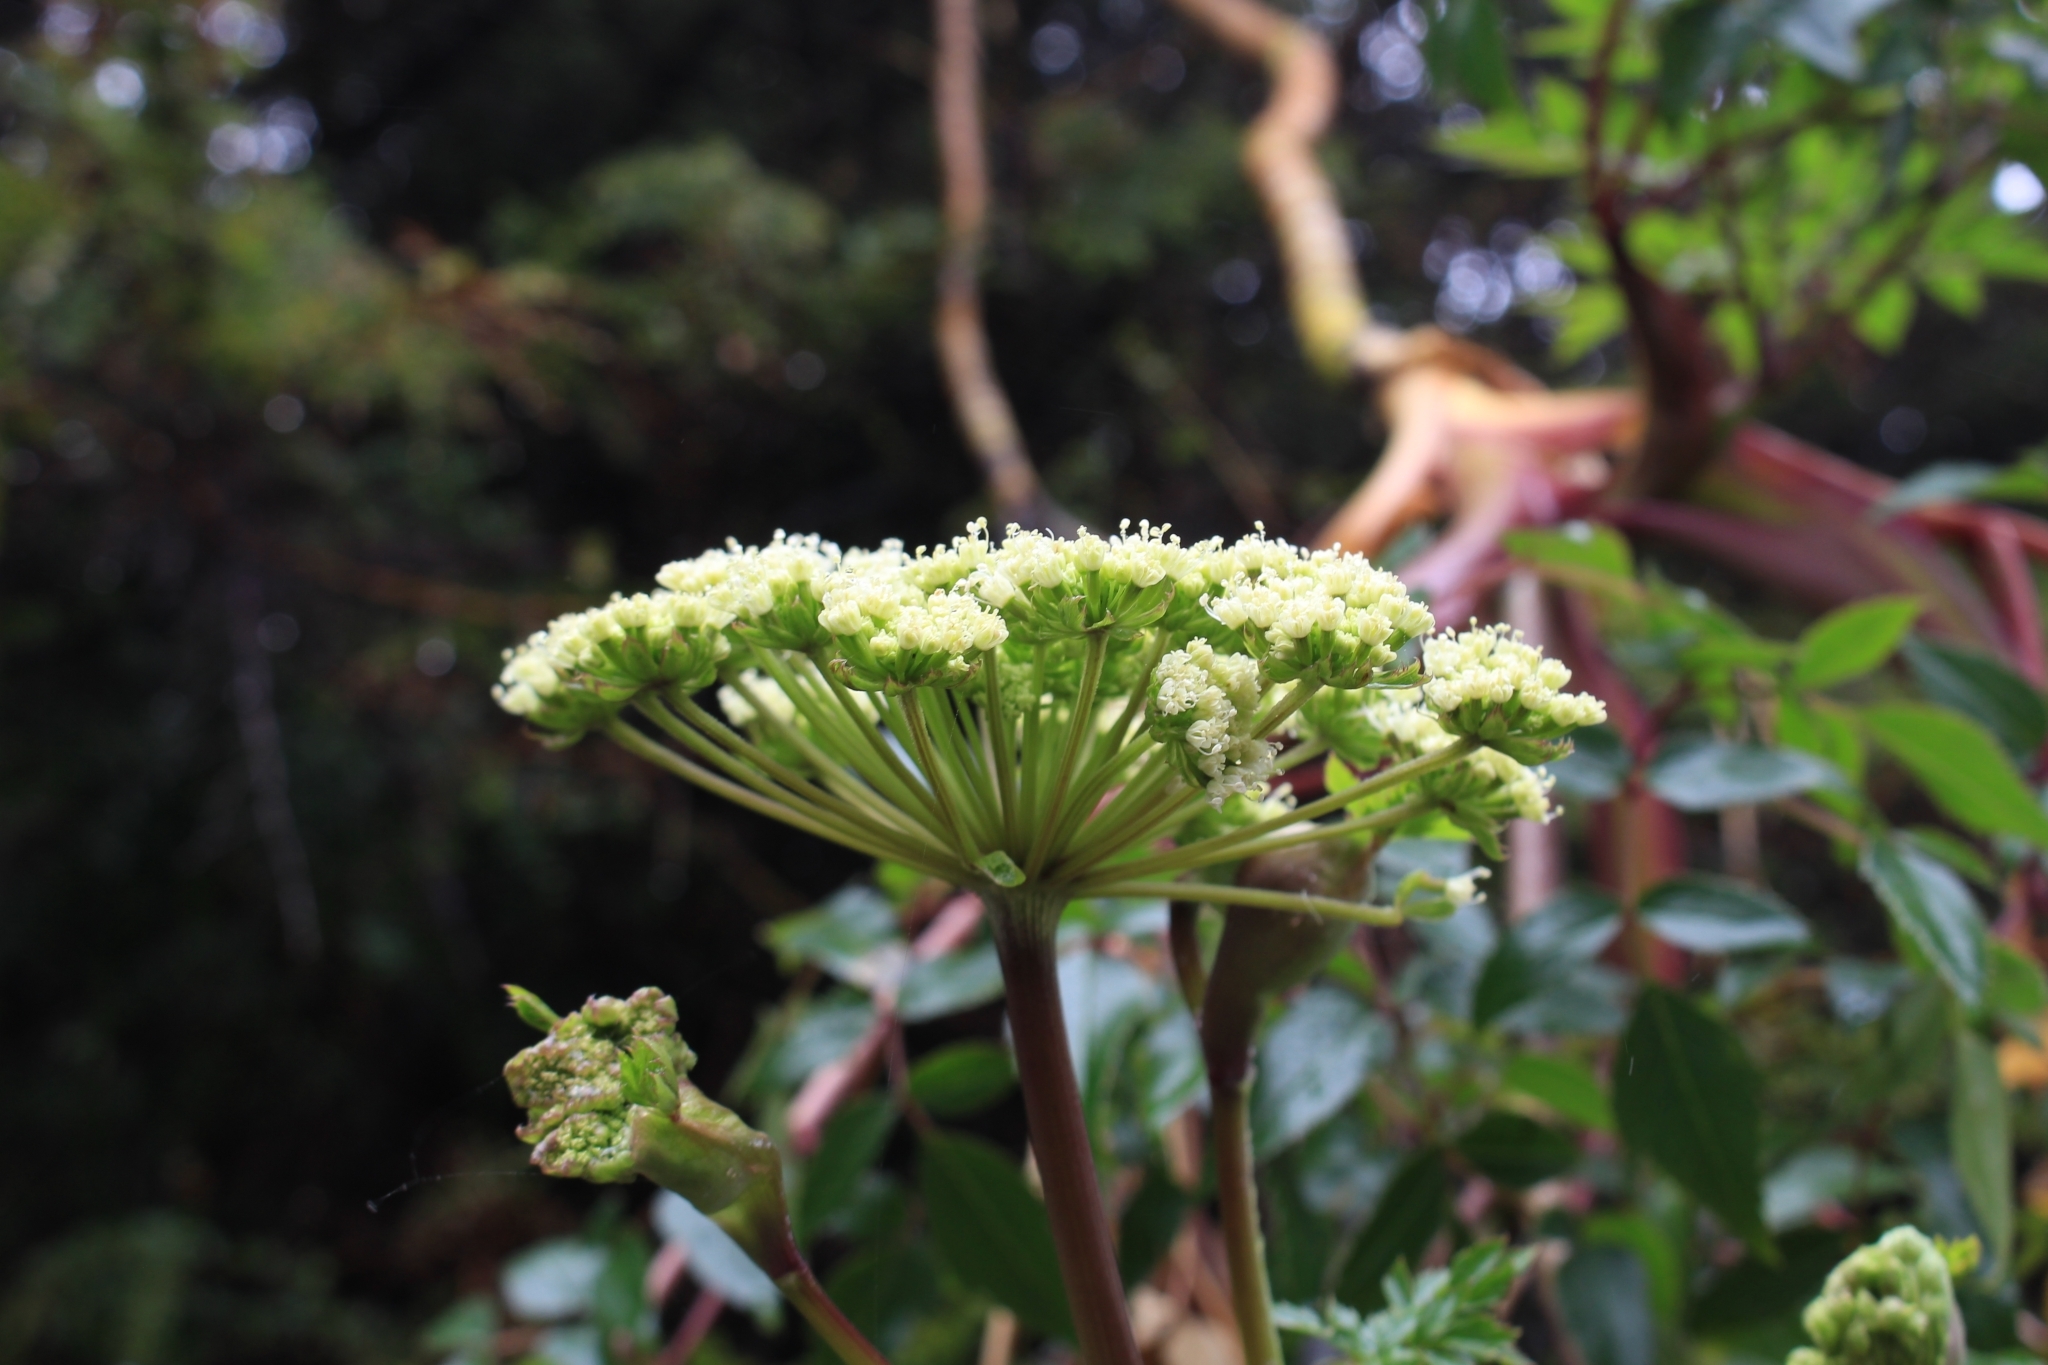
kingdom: Plantae
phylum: Tracheophyta
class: Magnoliopsida
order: Apiales
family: Apiaceae
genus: Myrrhidendron
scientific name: Myrrhidendron donnellsmithii
